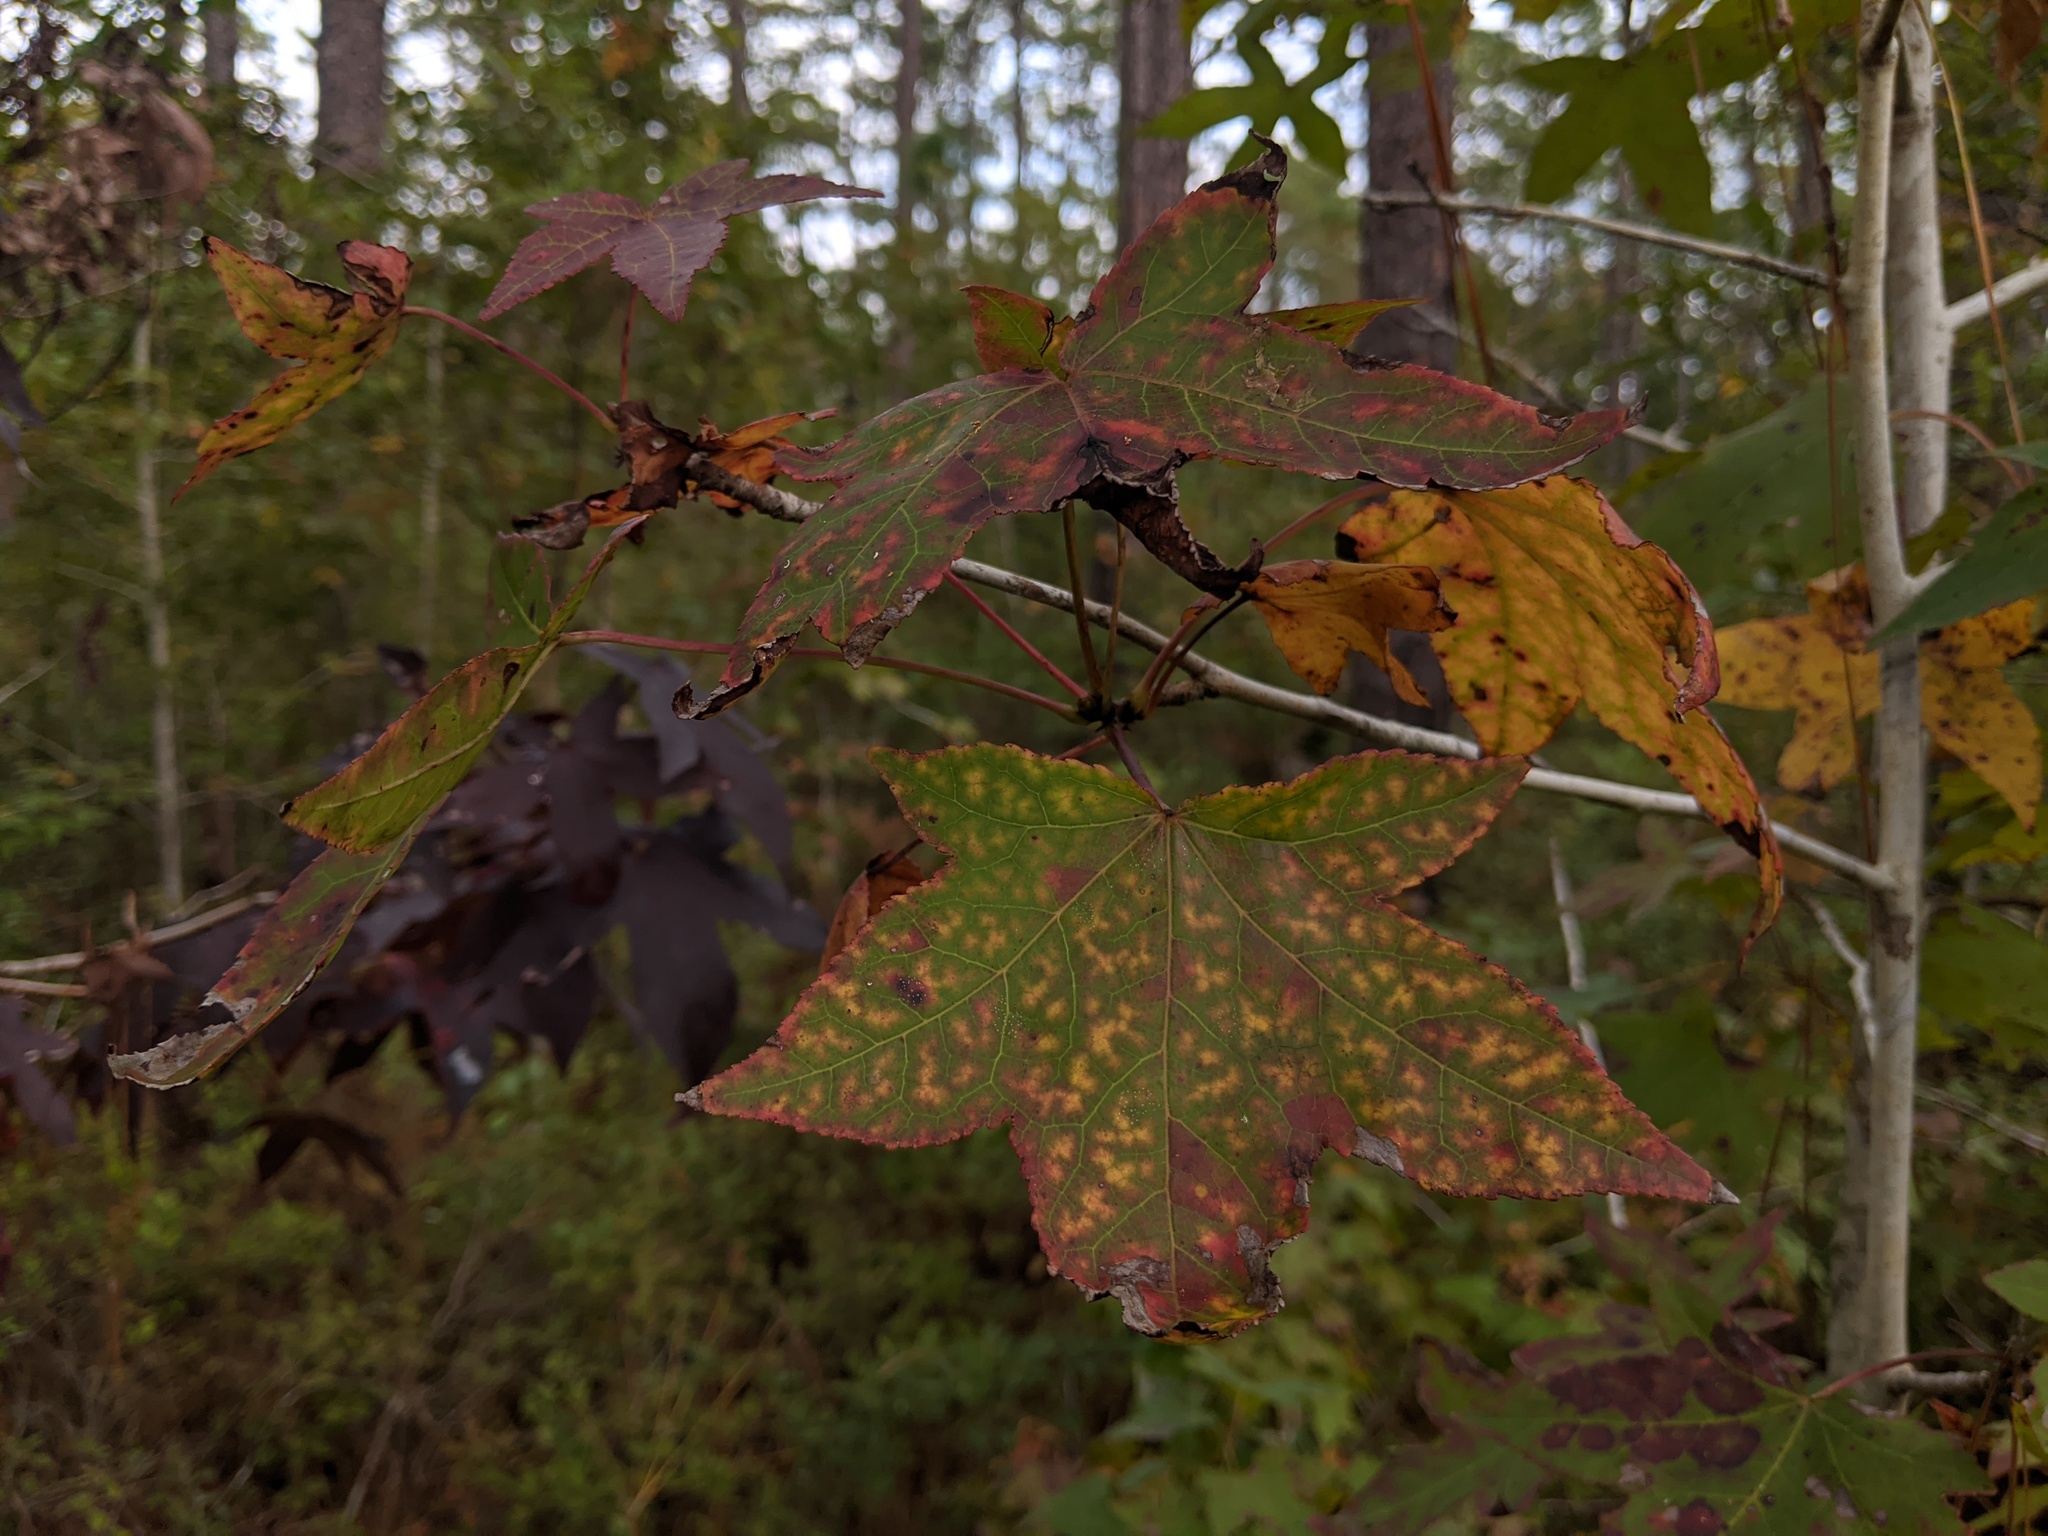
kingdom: Plantae
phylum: Tracheophyta
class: Magnoliopsida
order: Saxifragales
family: Altingiaceae
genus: Liquidambar
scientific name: Liquidambar styraciflua
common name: Sweet gum
